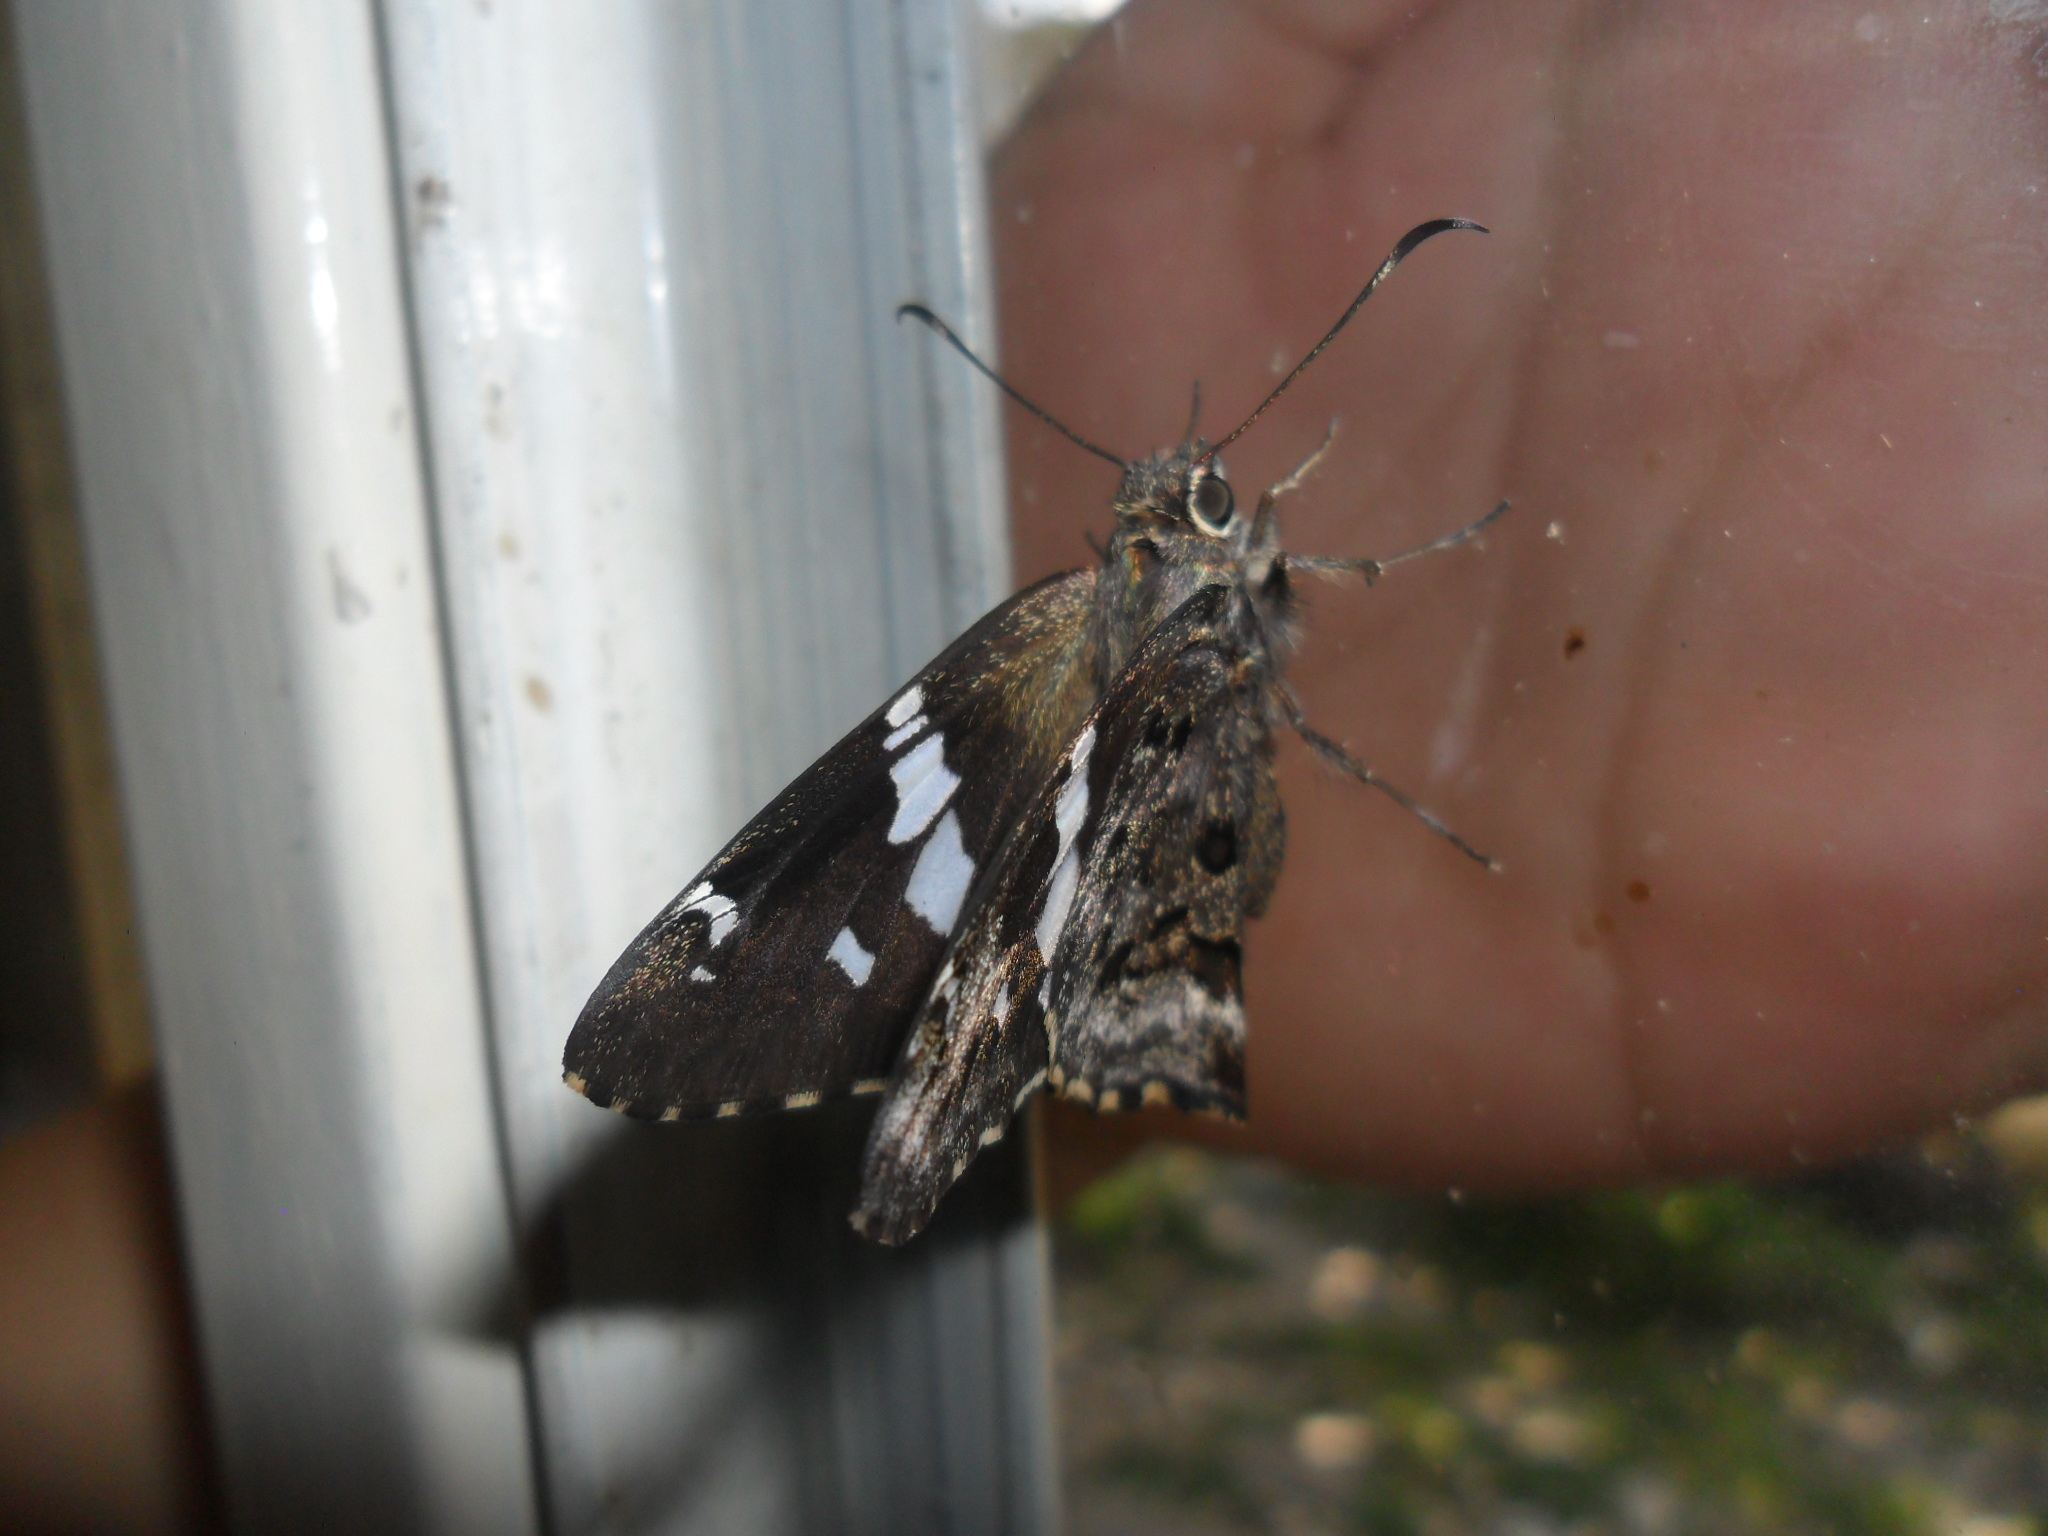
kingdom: Animalia
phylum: Arthropoda
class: Insecta
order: Lepidoptera
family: Hesperiidae
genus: Codatractus
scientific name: Codatractus bryaxis
